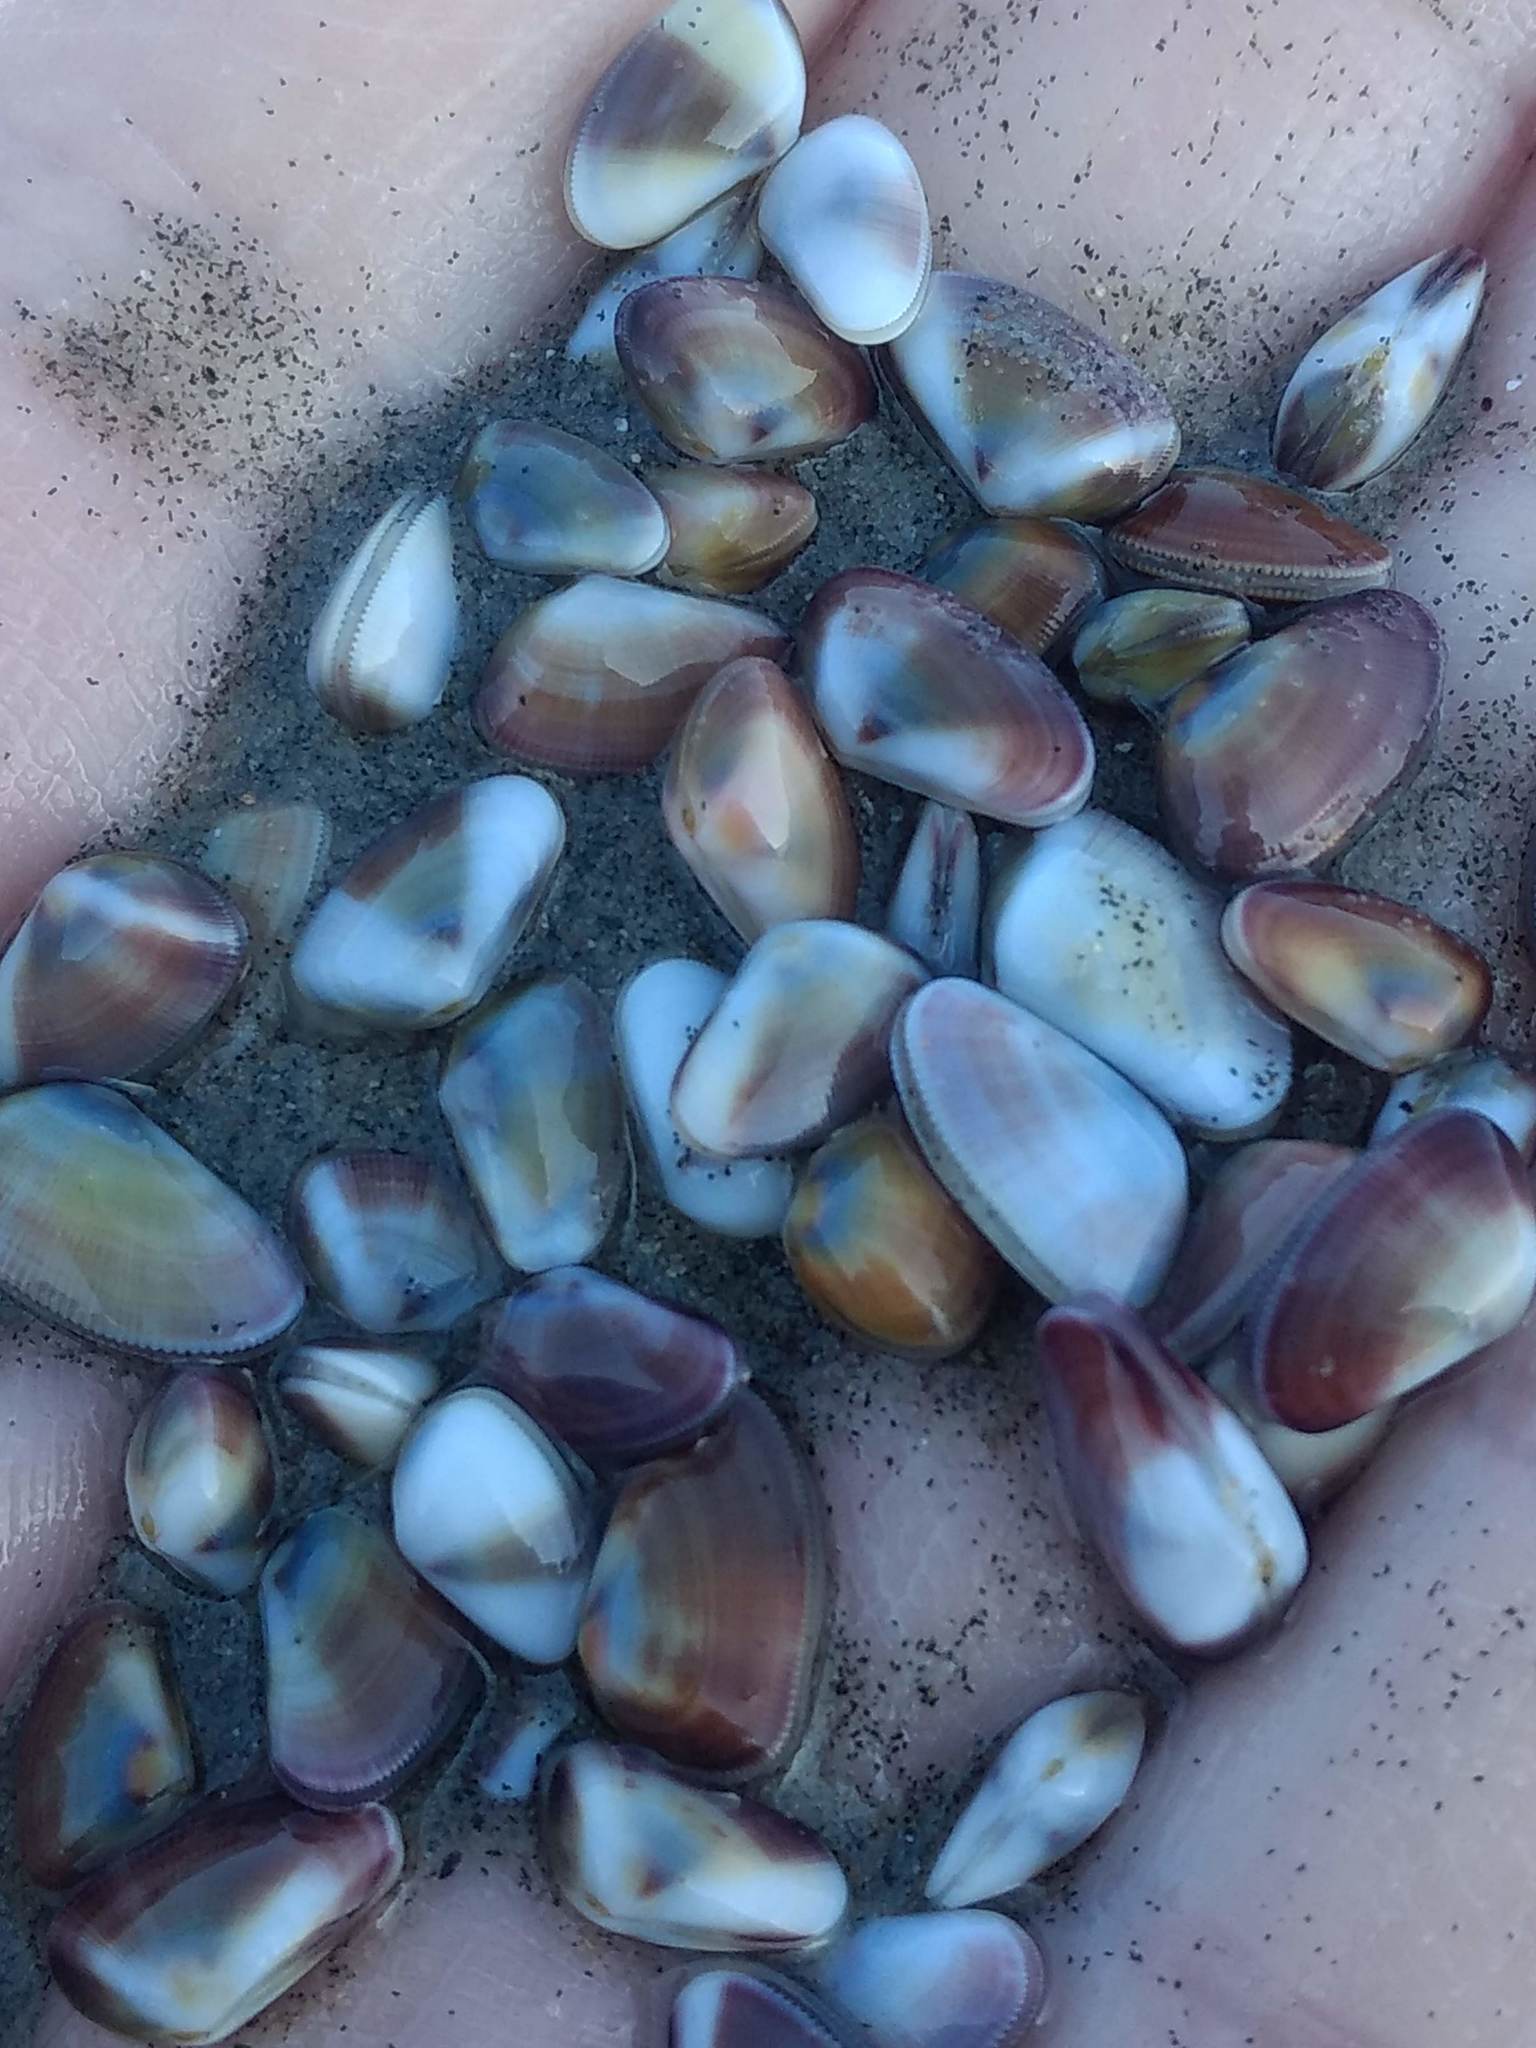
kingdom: Animalia
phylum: Mollusca
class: Bivalvia
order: Cardiida
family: Donacidae
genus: Donax
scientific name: Donax gouldii
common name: Gould beanclam
